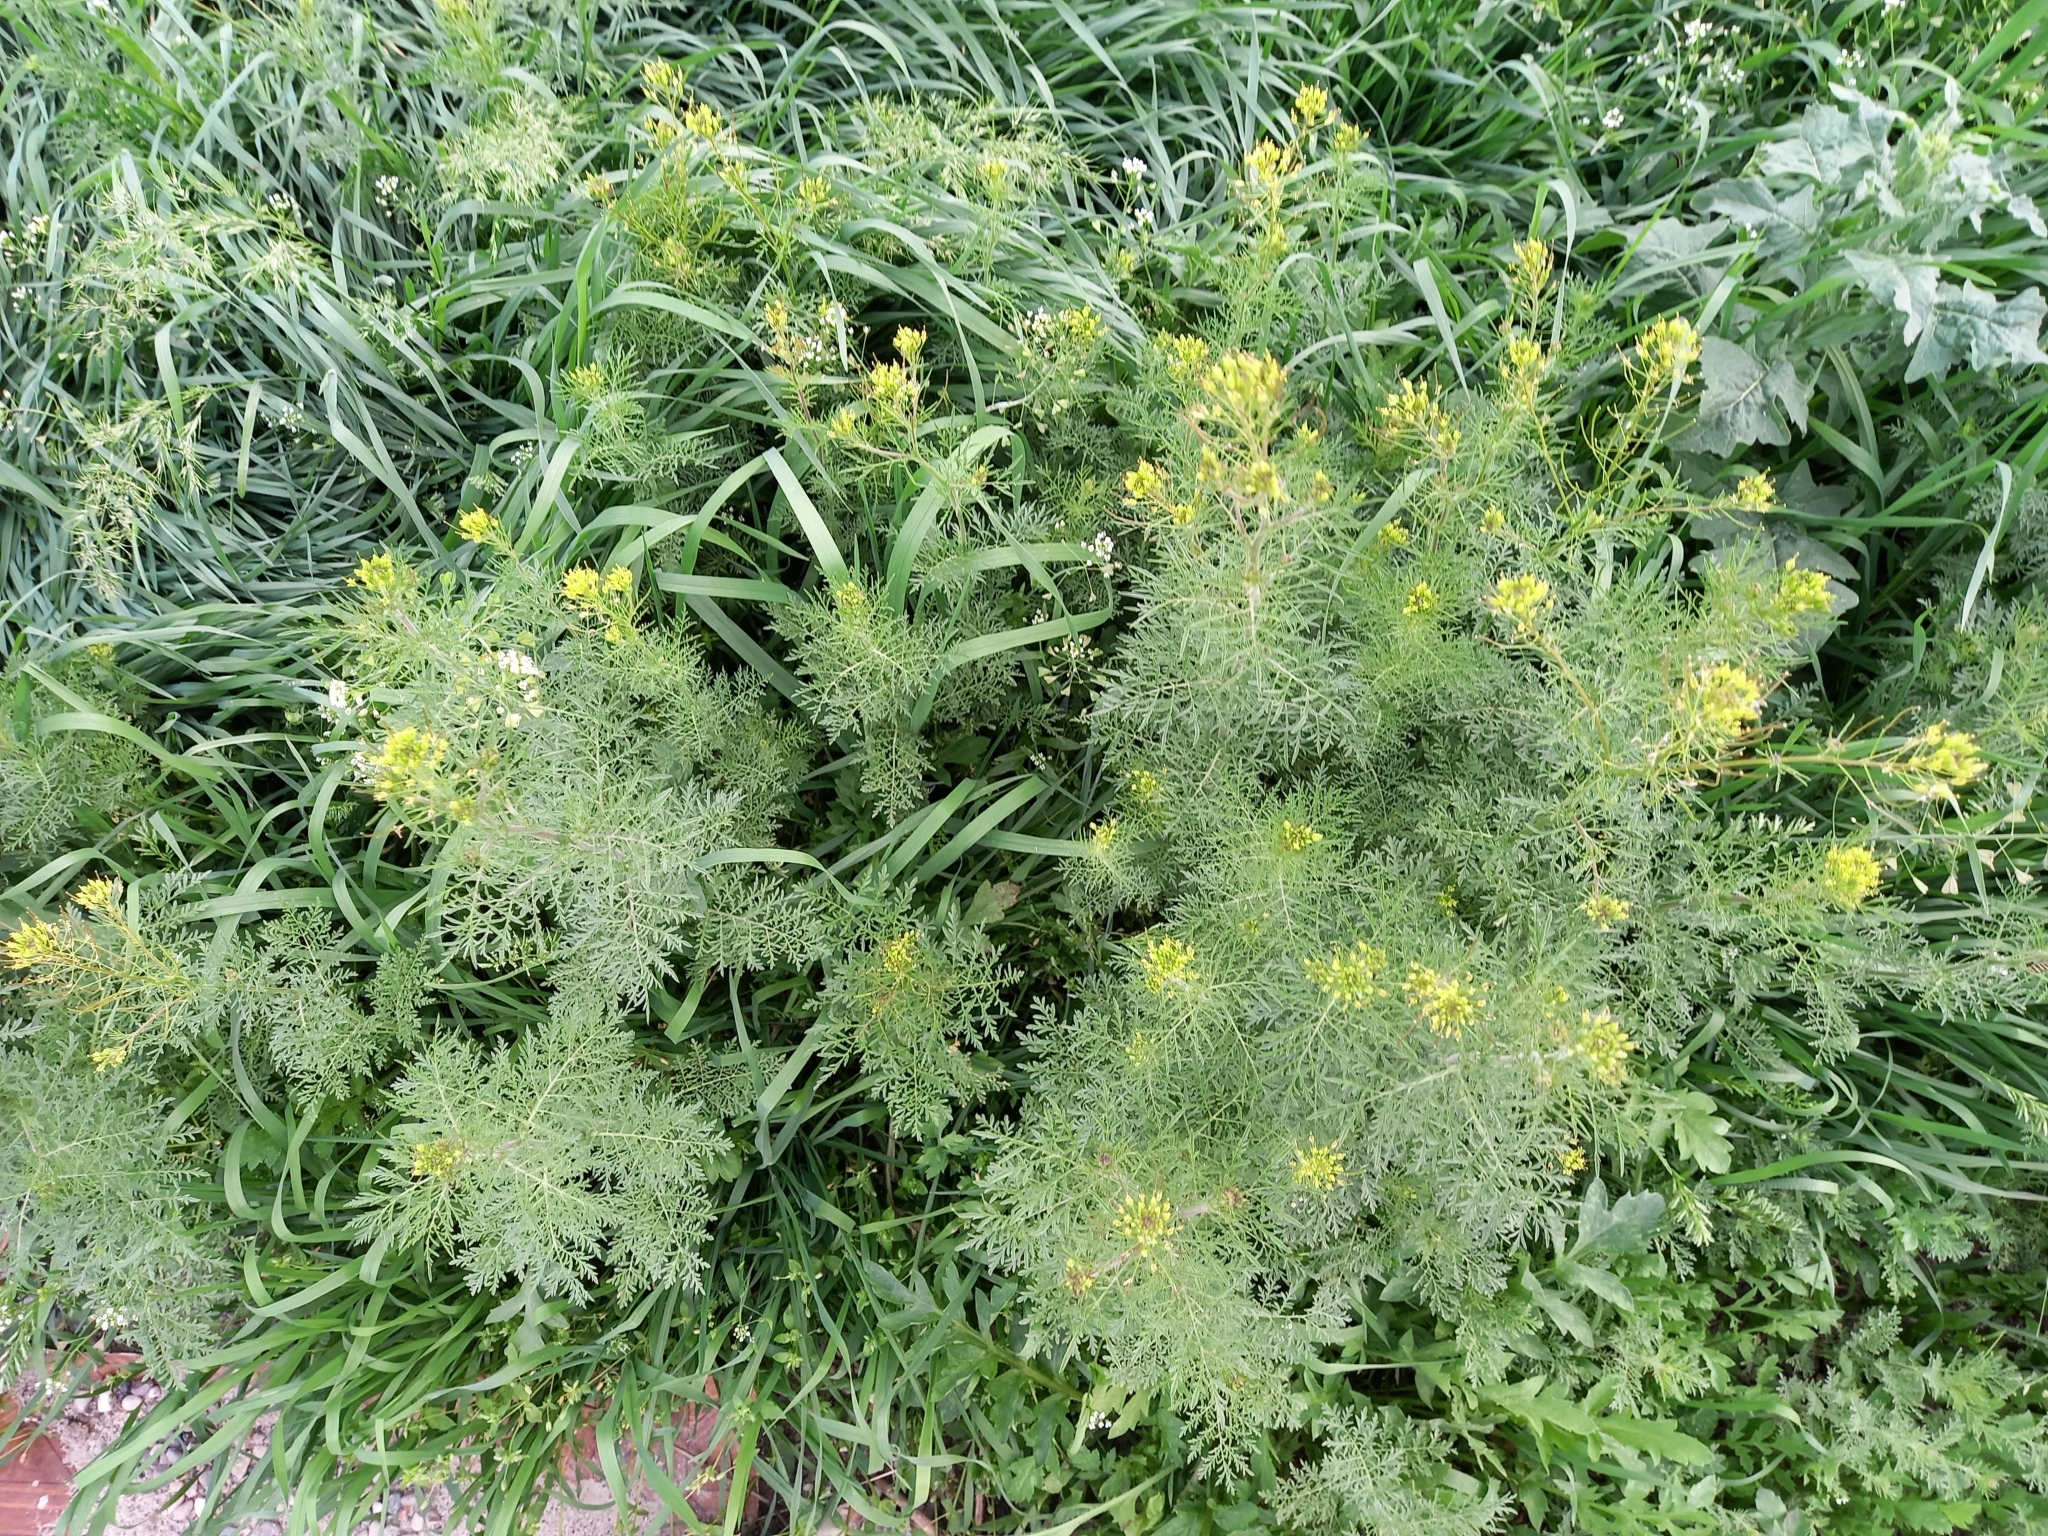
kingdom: Plantae
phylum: Tracheophyta
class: Magnoliopsida
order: Brassicales
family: Brassicaceae
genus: Descurainia
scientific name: Descurainia sophia
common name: Flixweed
